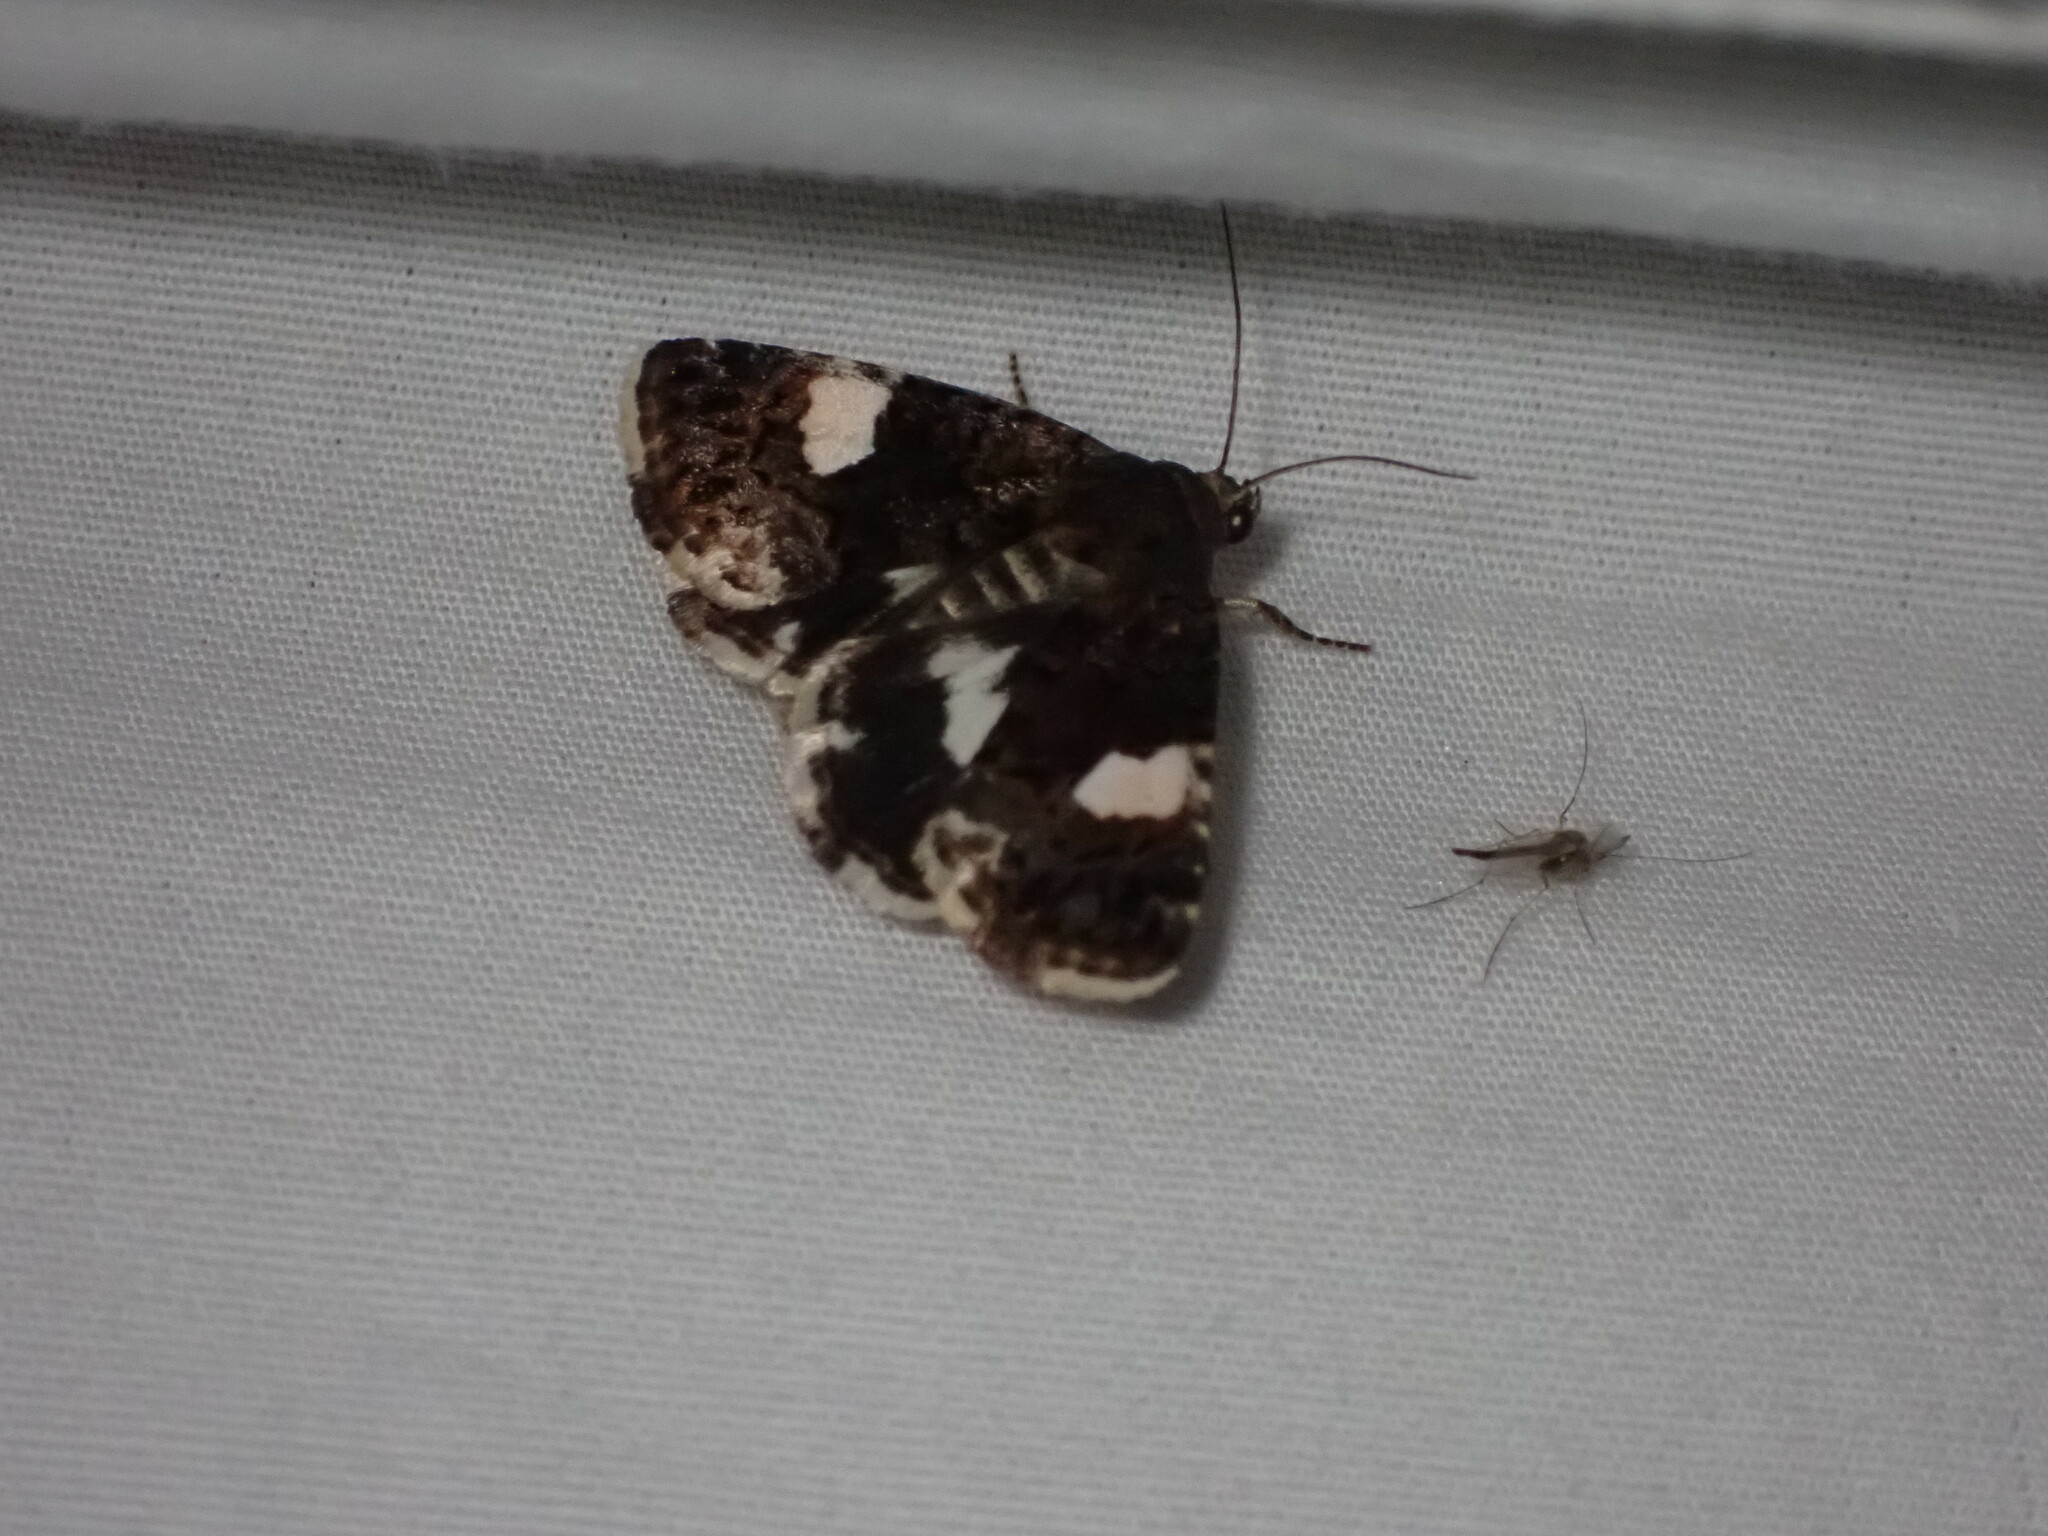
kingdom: Animalia
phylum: Arthropoda
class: Insecta
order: Lepidoptera
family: Erebidae
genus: Tyta
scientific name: Tyta luctuosa
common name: Four-spotted
